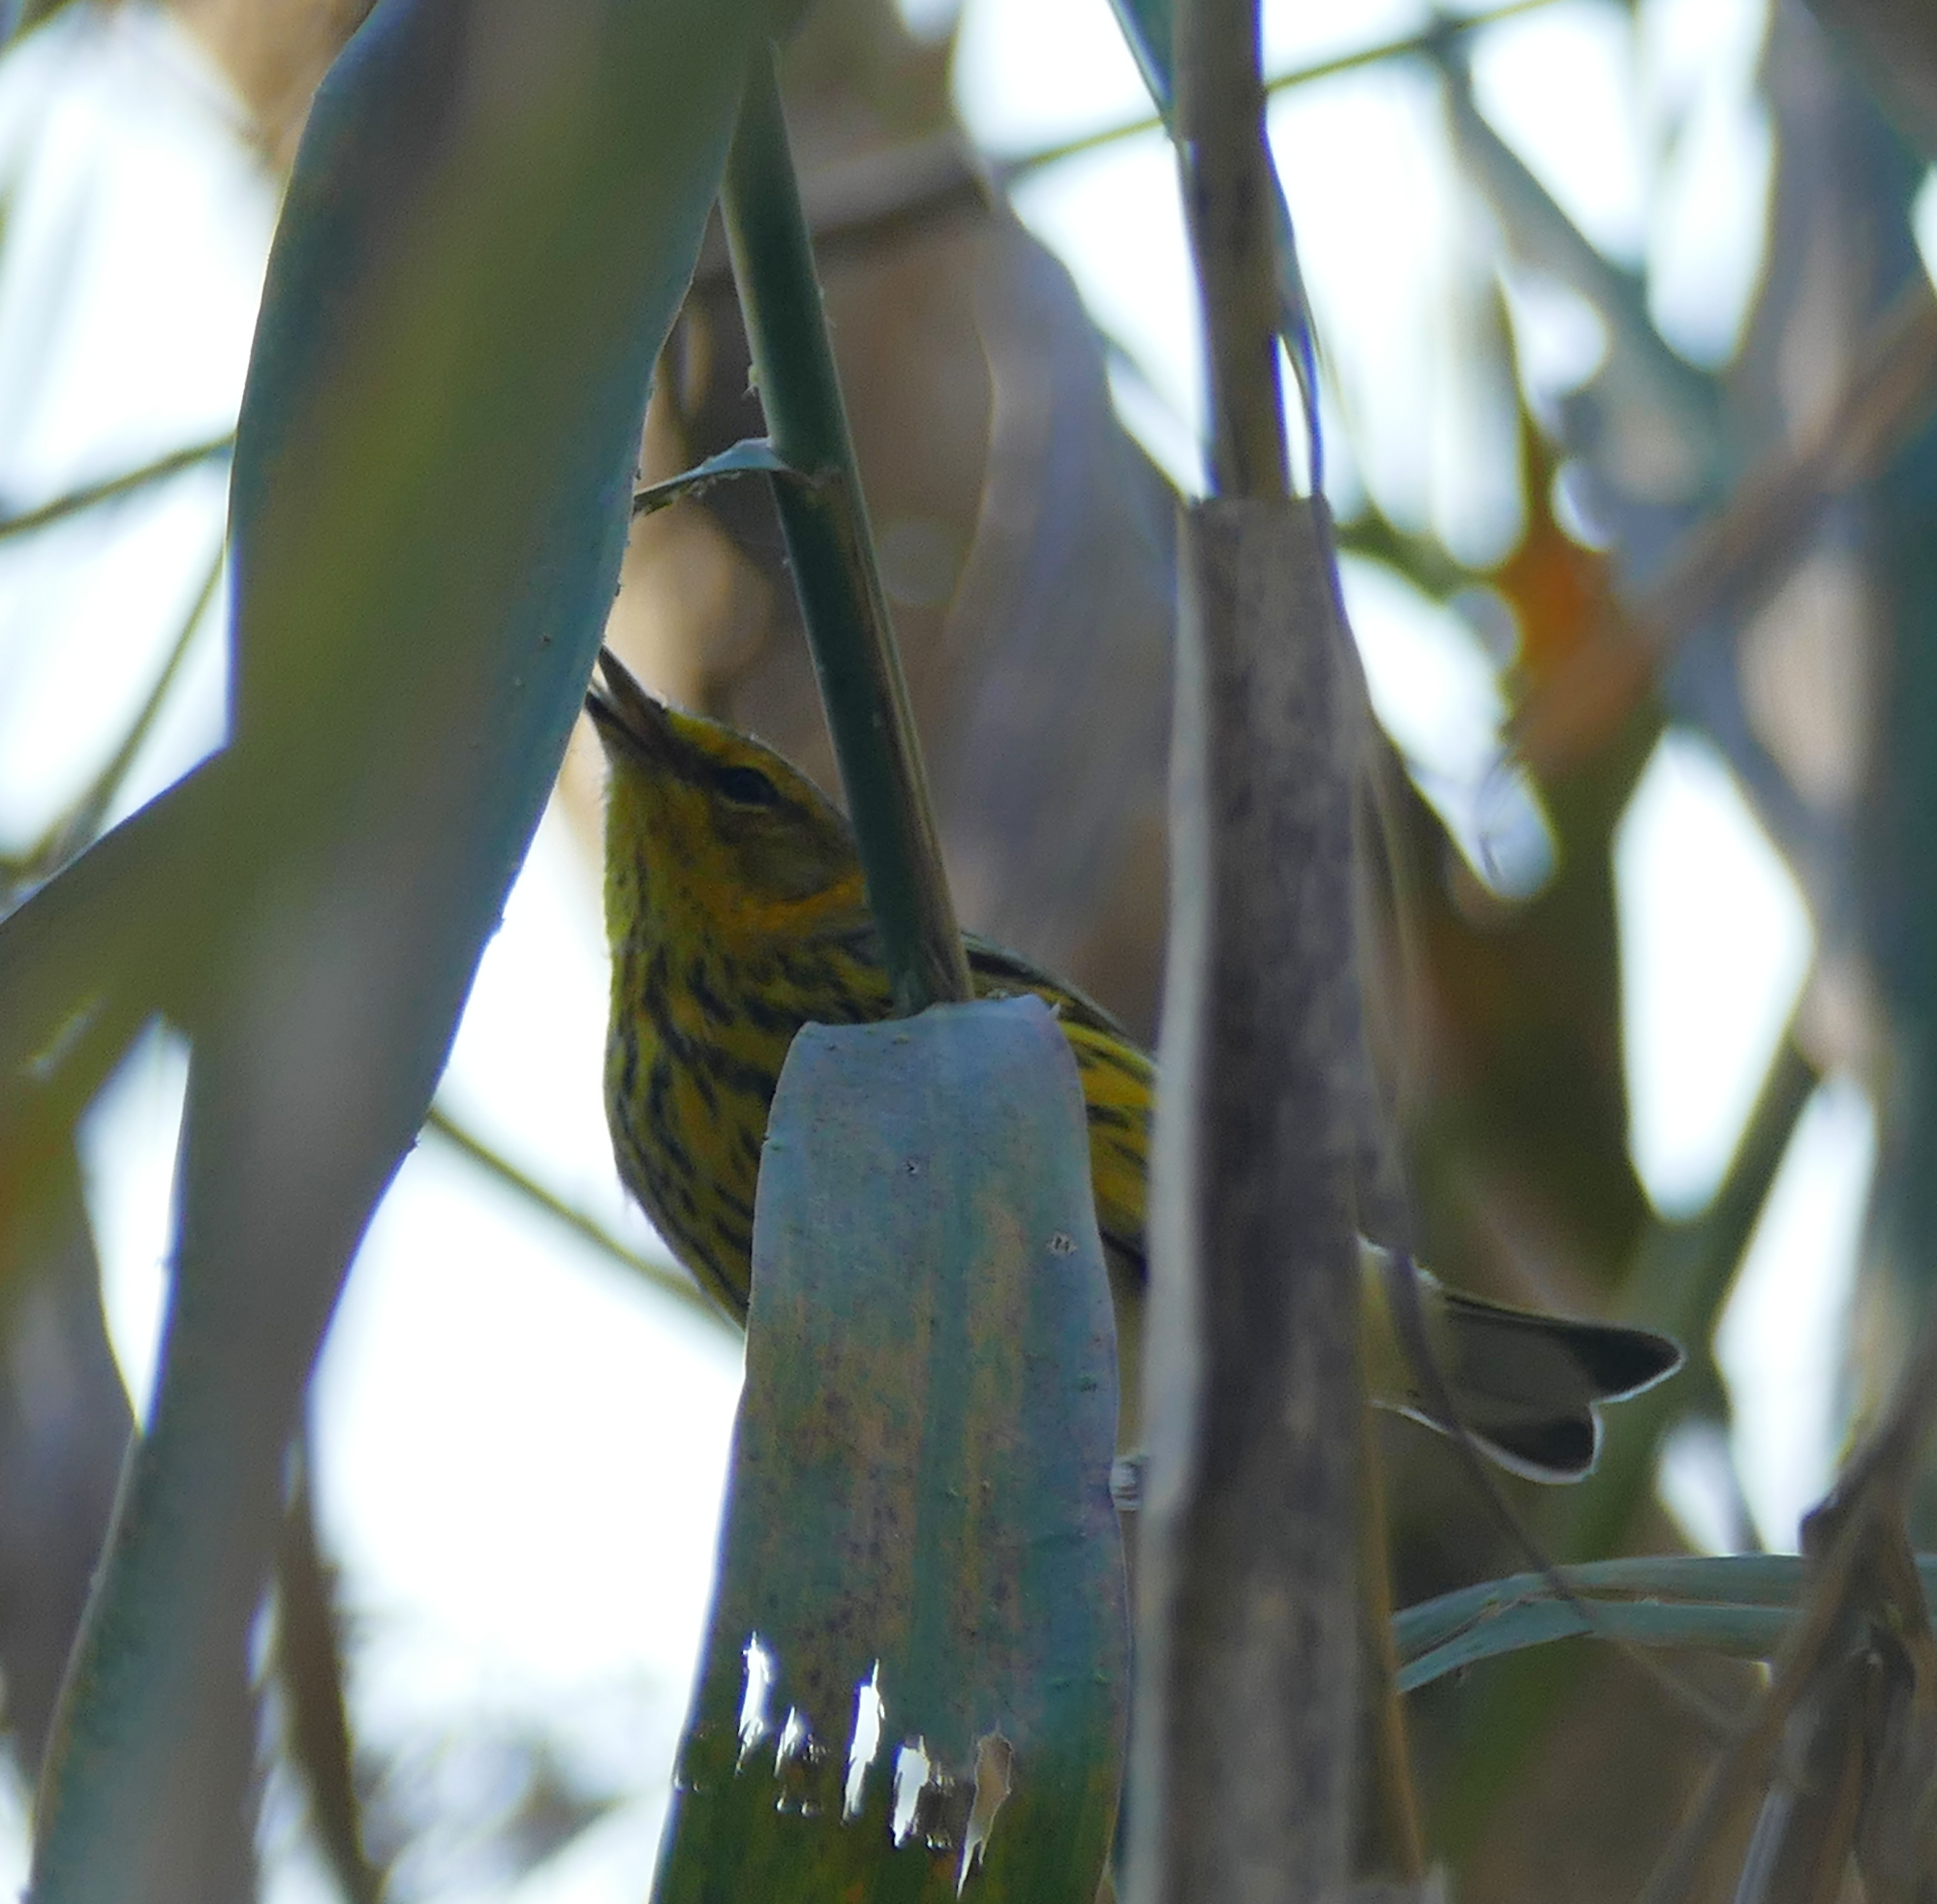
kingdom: Animalia
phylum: Chordata
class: Aves
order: Passeriformes
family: Parulidae
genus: Setophaga
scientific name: Setophaga tigrina
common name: Cape may warbler
